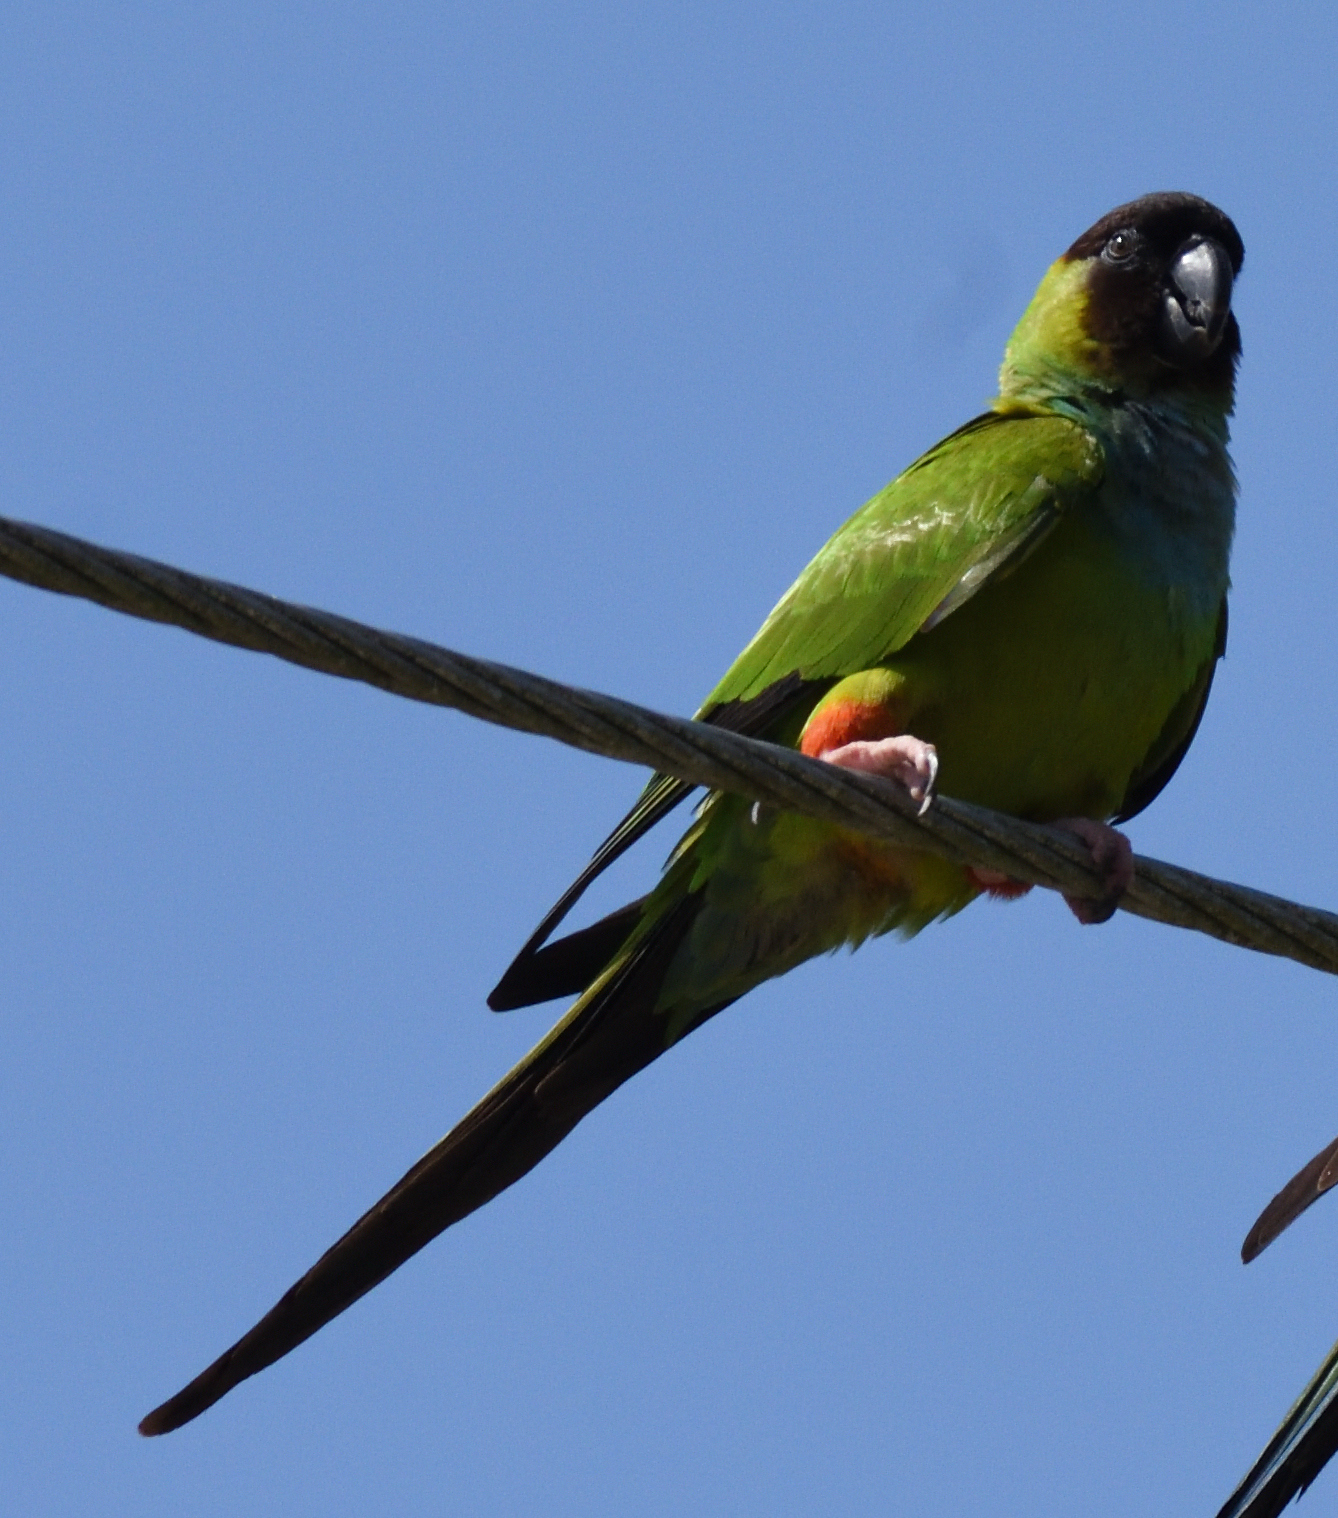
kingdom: Animalia
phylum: Chordata
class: Aves
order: Psittaciformes
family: Psittacidae
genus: Nandayus
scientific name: Nandayus nenday
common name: Nanday parakeet
